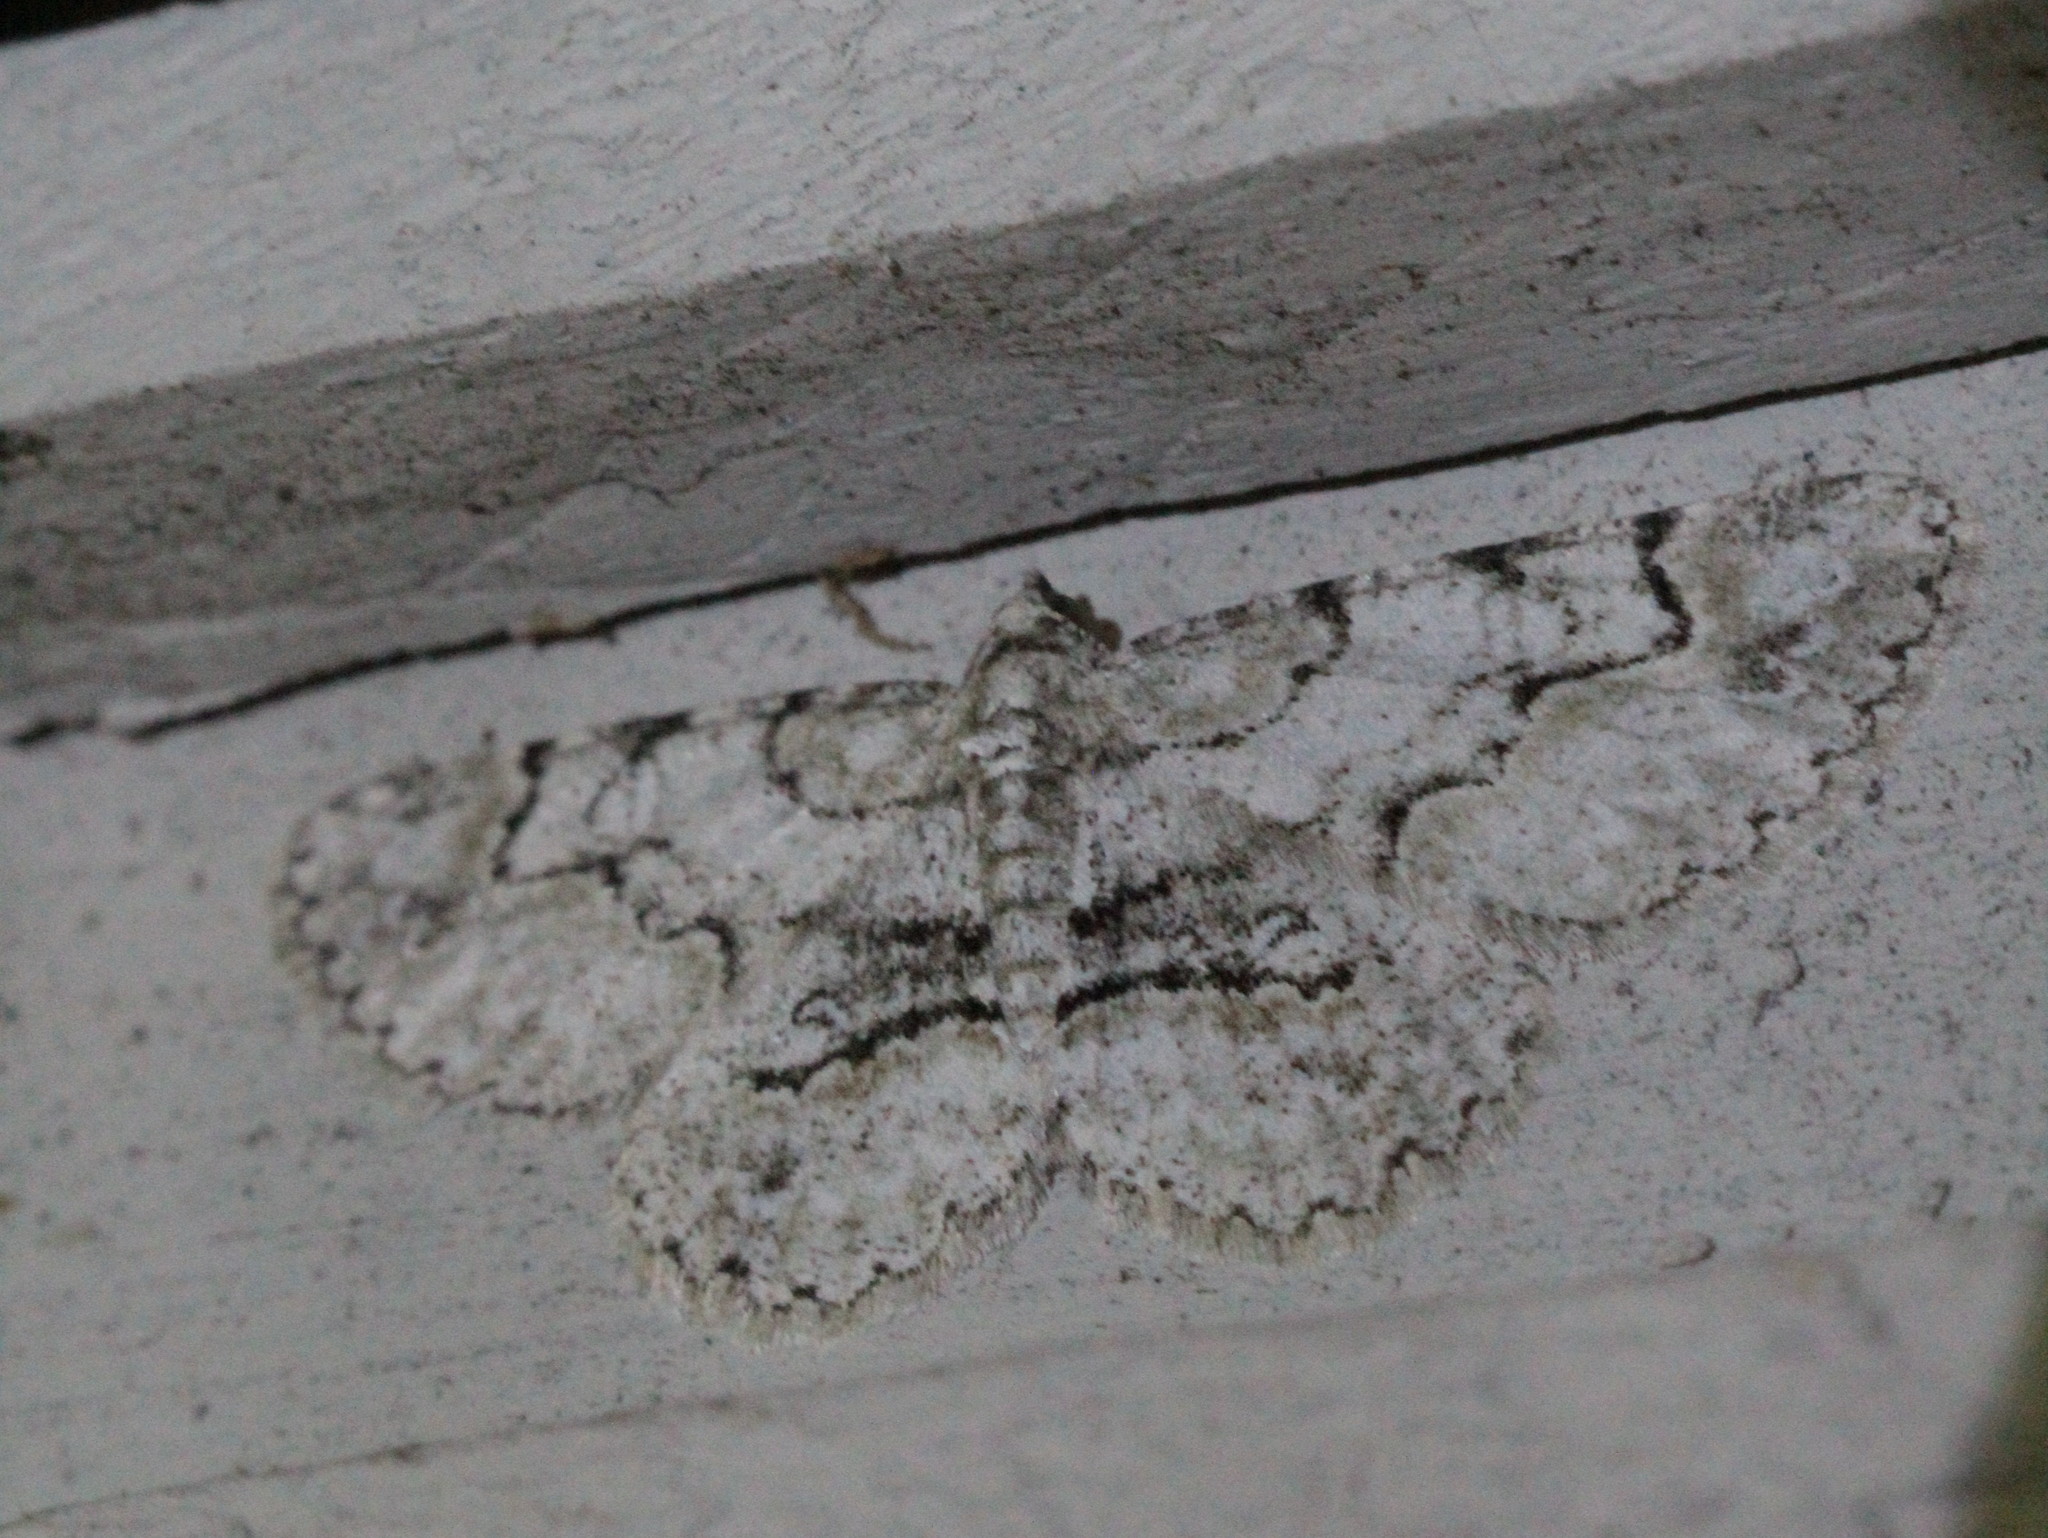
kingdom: Animalia
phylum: Arthropoda
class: Insecta
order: Lepidoptera
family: Geometridae
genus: Iridopsis
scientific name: Iridopsis ephyraria
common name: Pale-winged gray
